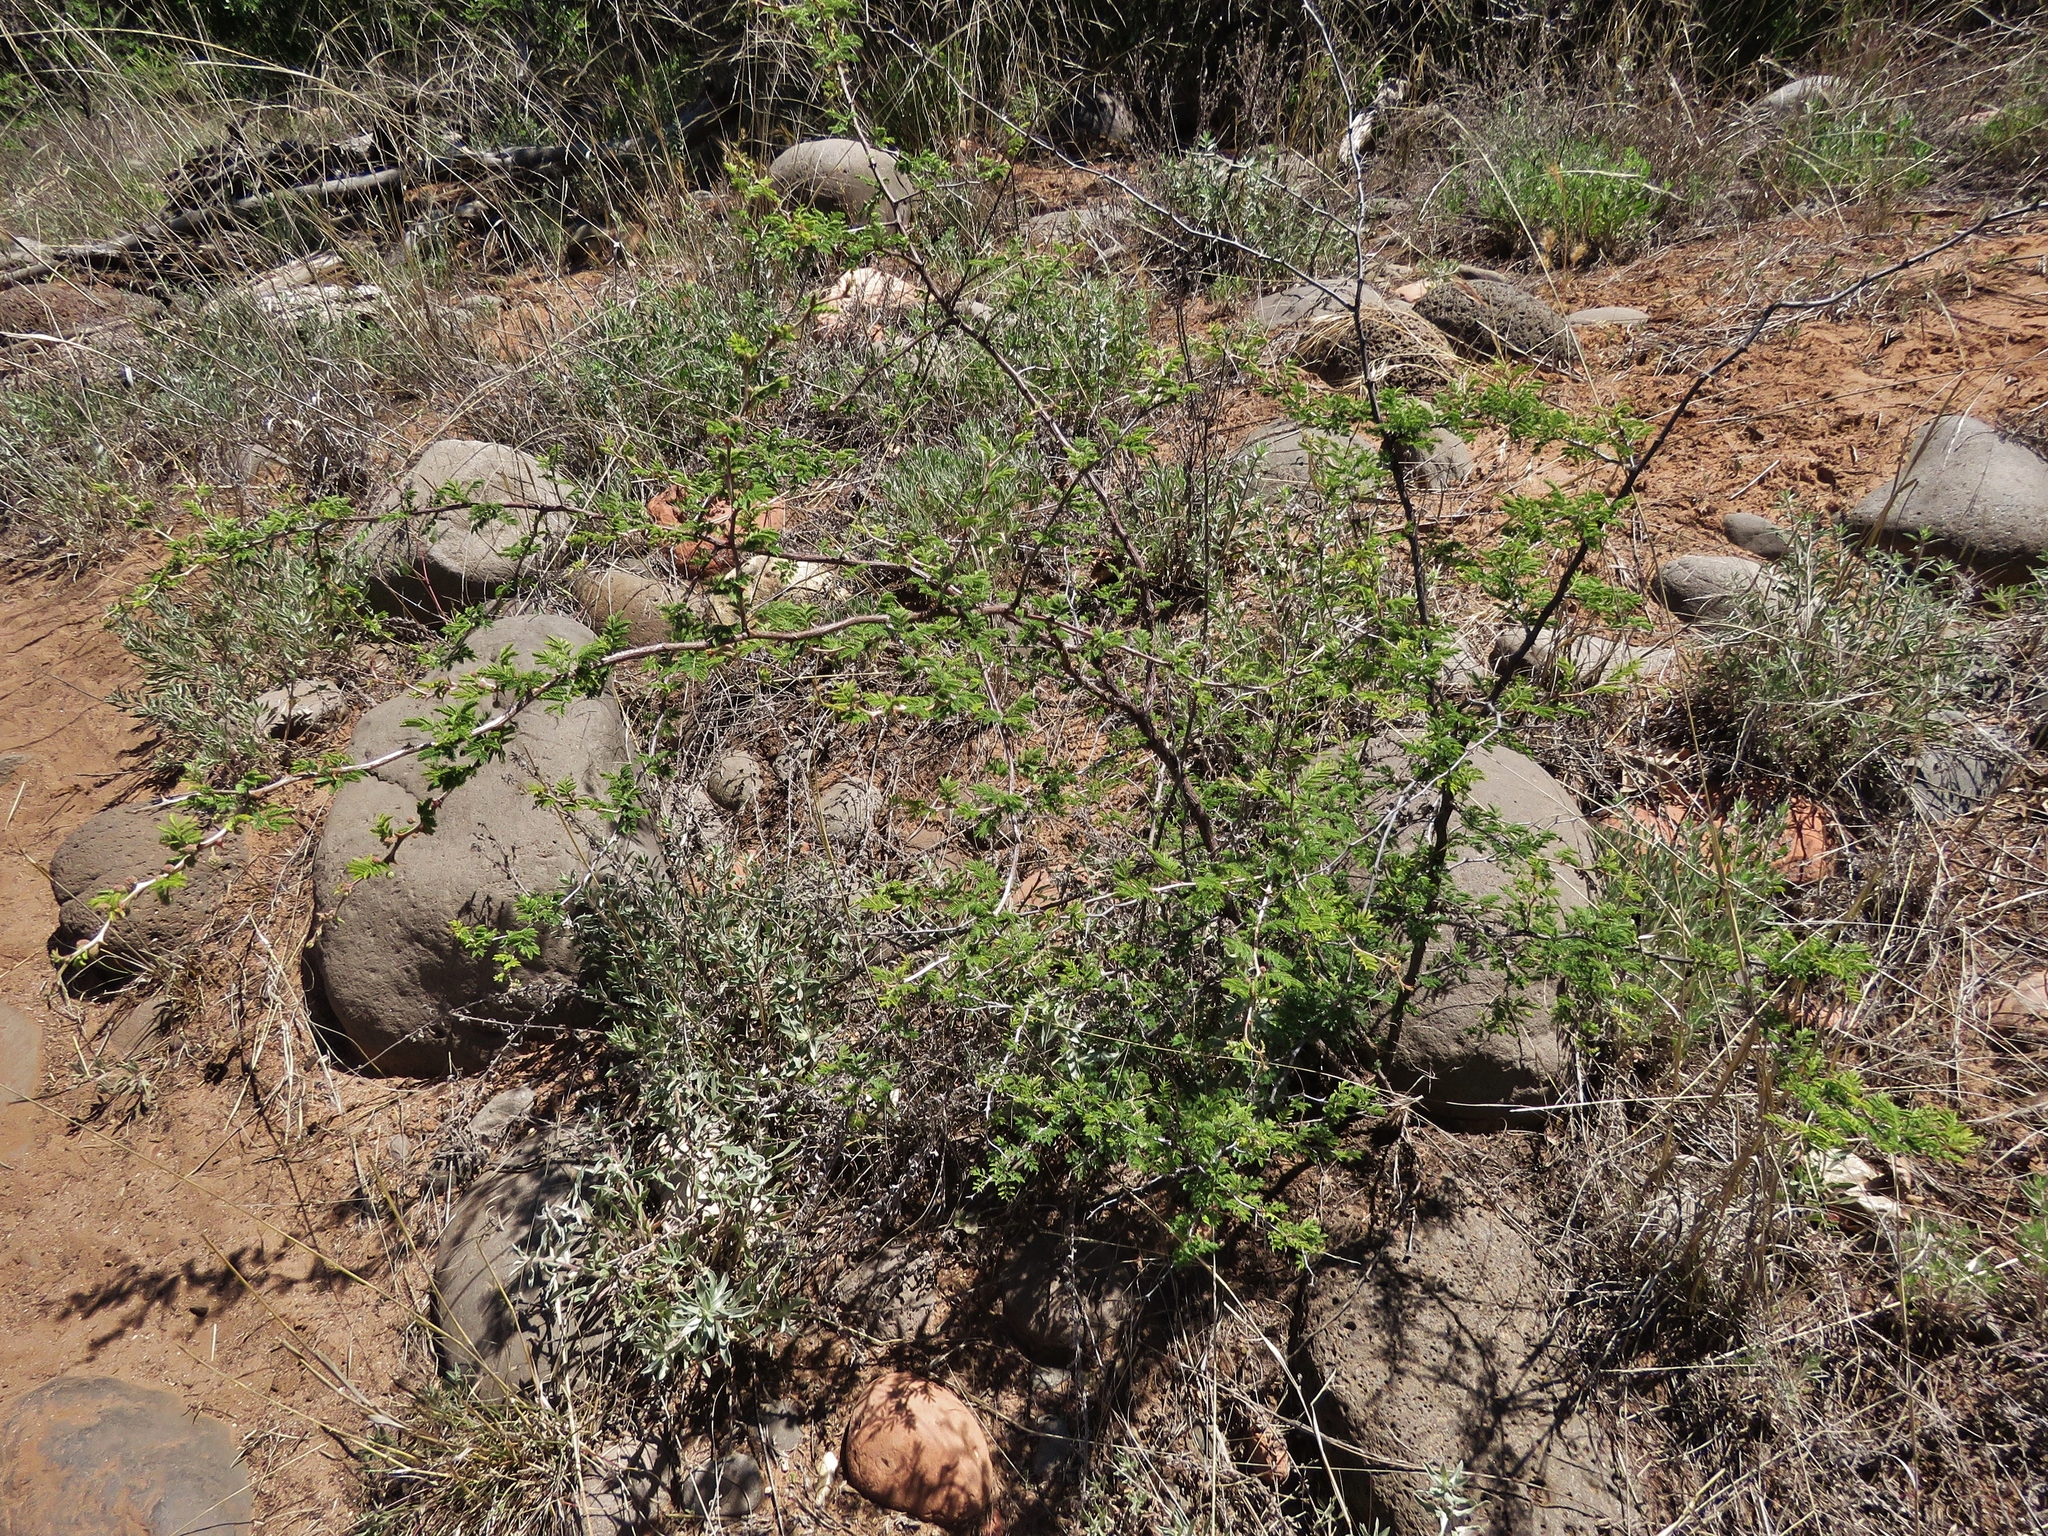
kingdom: Plantae
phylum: Tracheophyta
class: Magnoliopsida
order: Fabales
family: Fabaceae
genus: Mimosa
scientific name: Mimosa biuncifera
